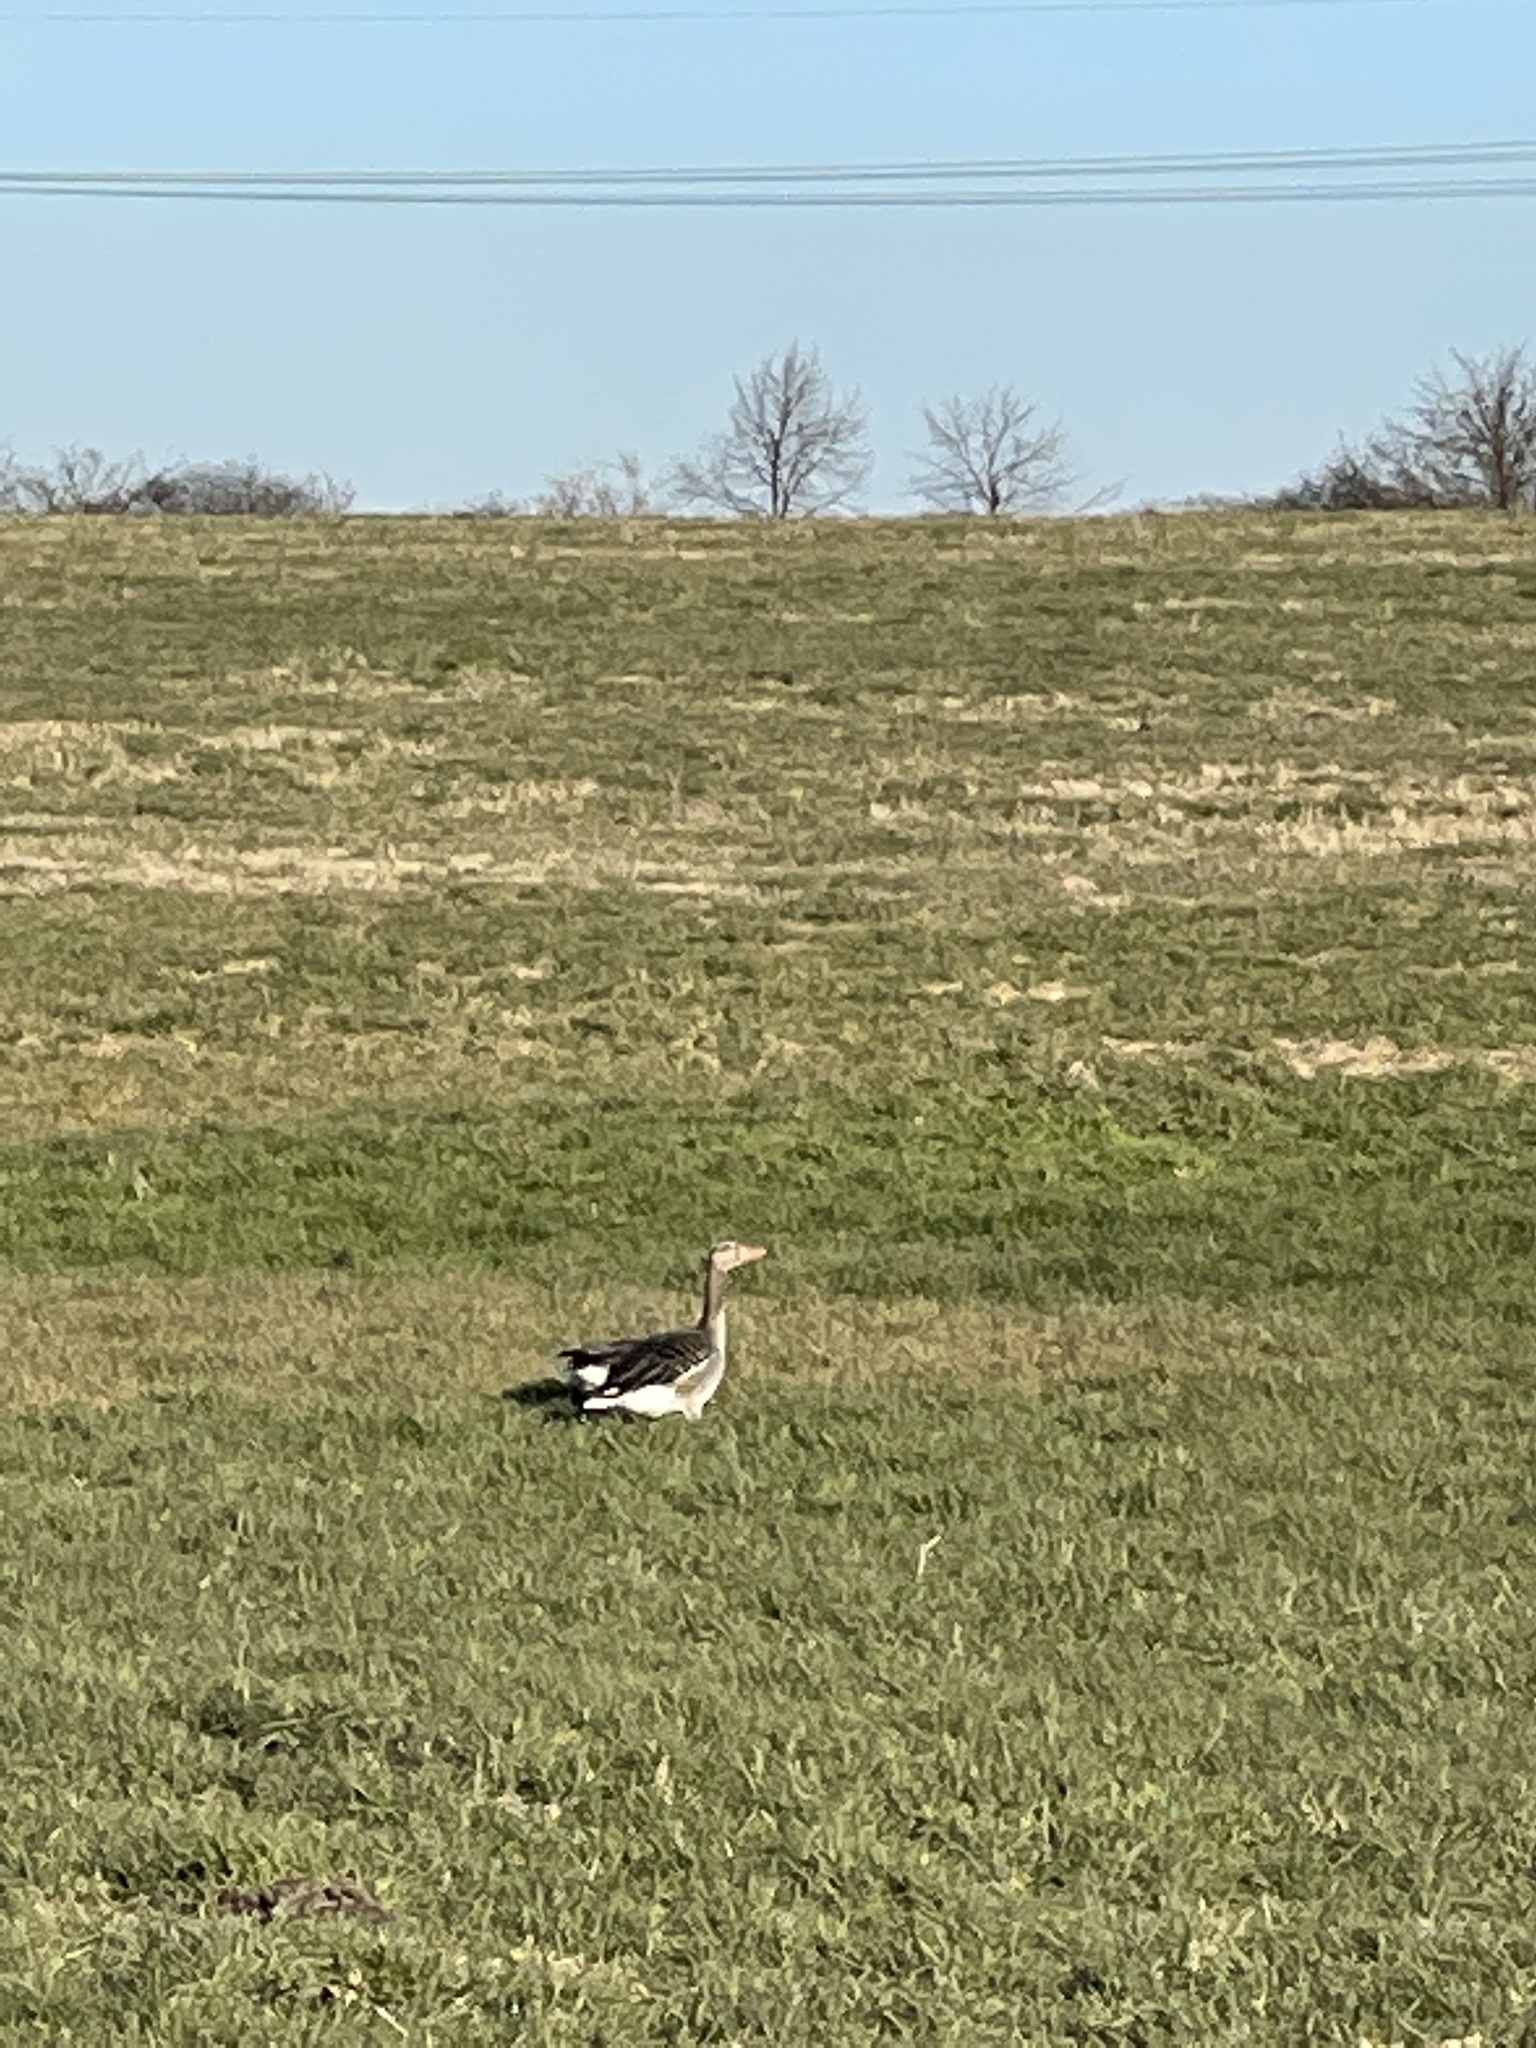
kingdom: Animalia
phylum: Chordata
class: Aves
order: Anseriformes
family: Anatidae
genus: Anser
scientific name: Anser anser
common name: Greylag goose
